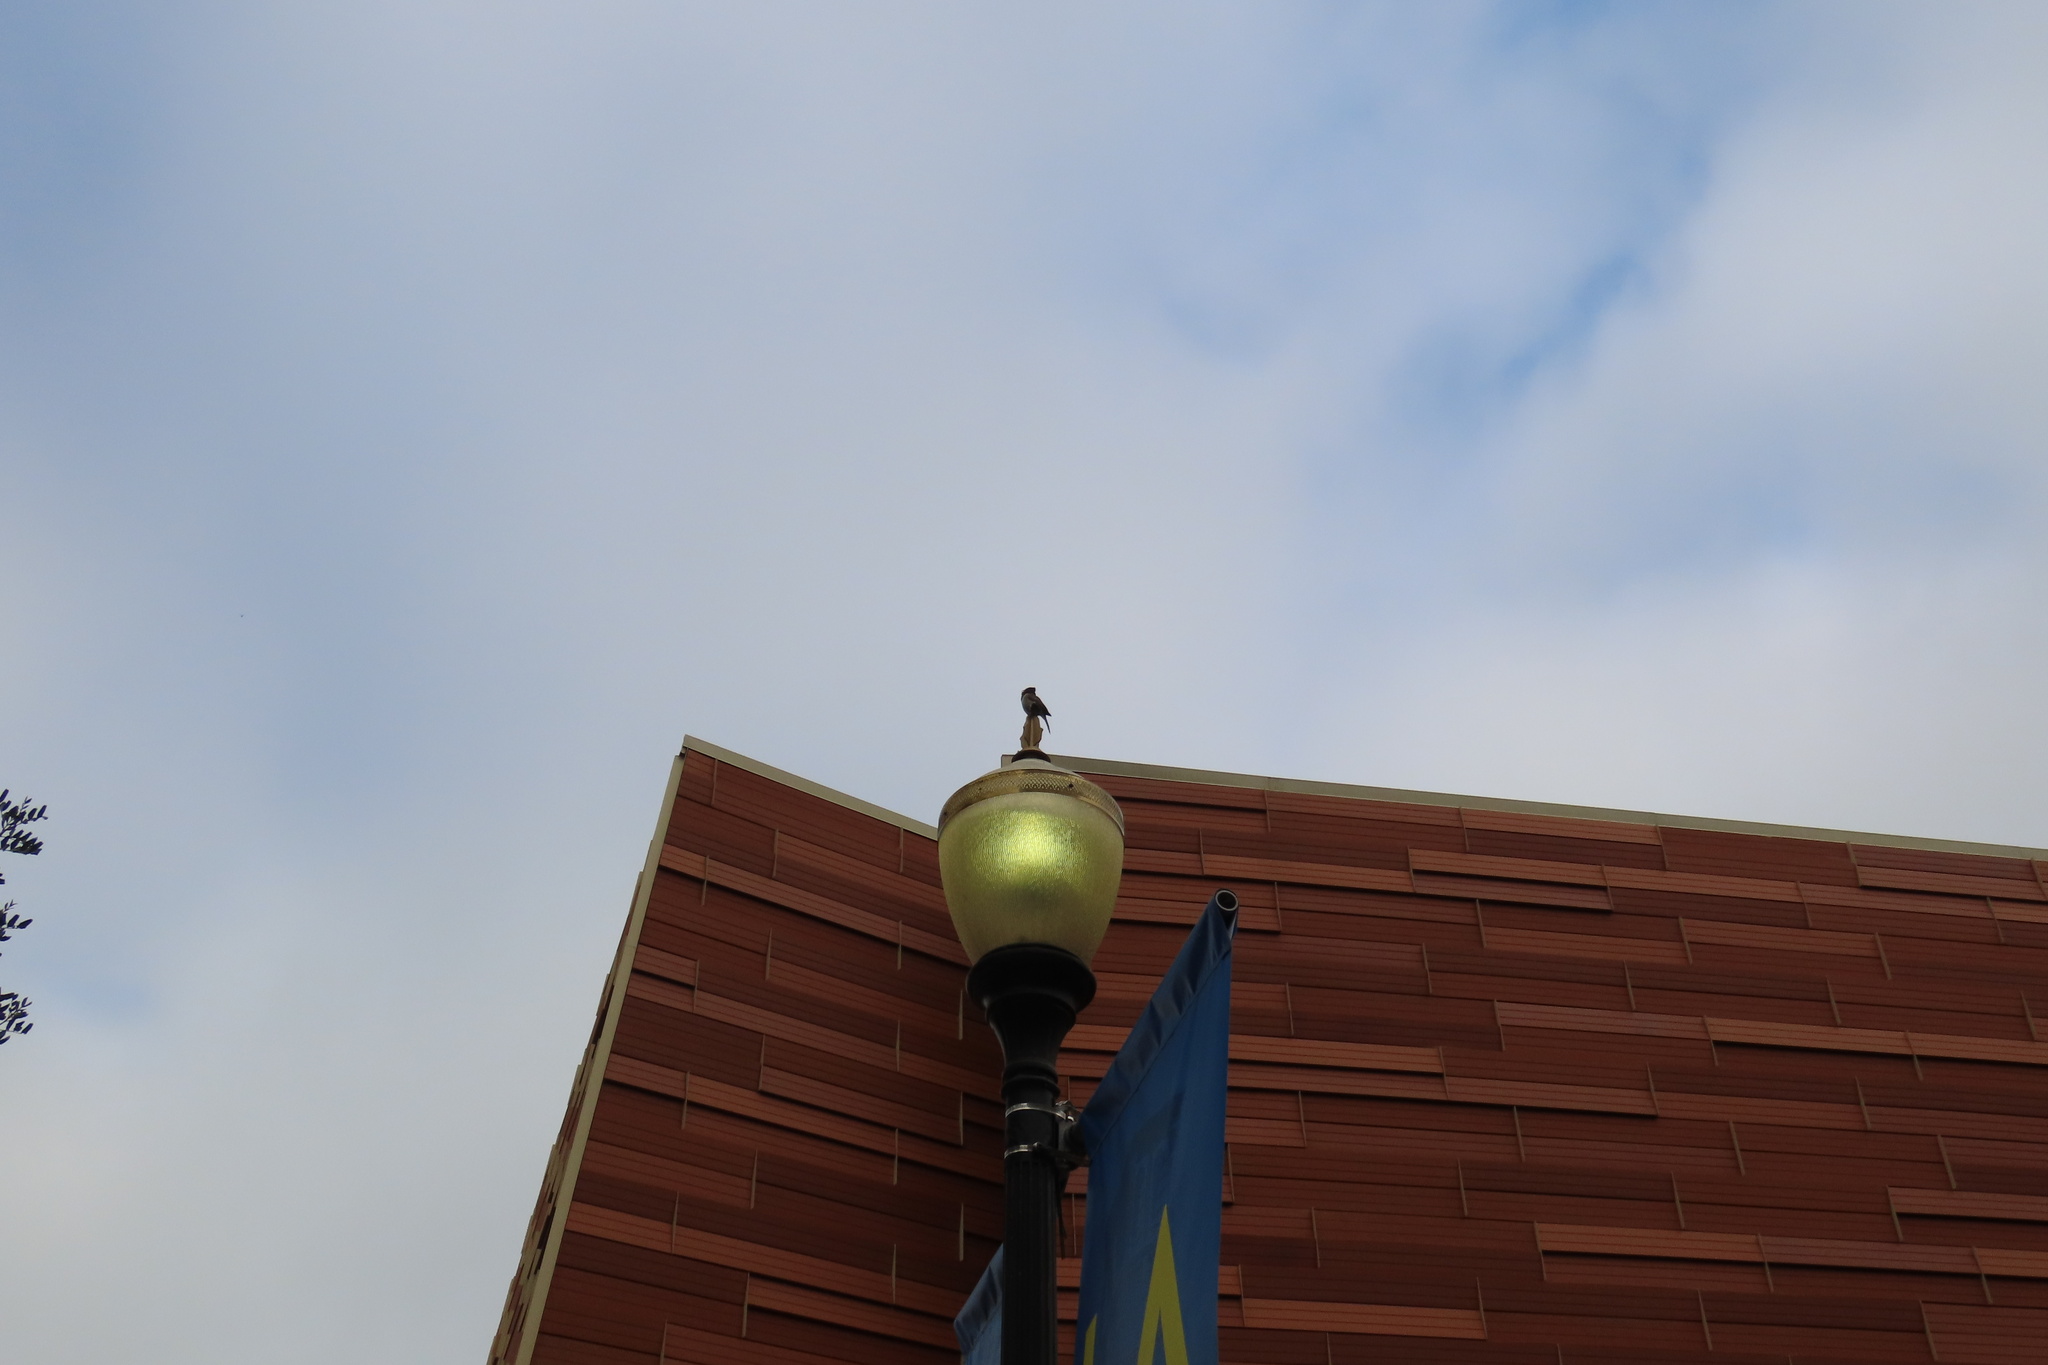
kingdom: Animalia
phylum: Chordata
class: Aves
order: Passeriformes
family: Passerellidae
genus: Junco
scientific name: Junco hyemalis
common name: Dark-eyed junco
